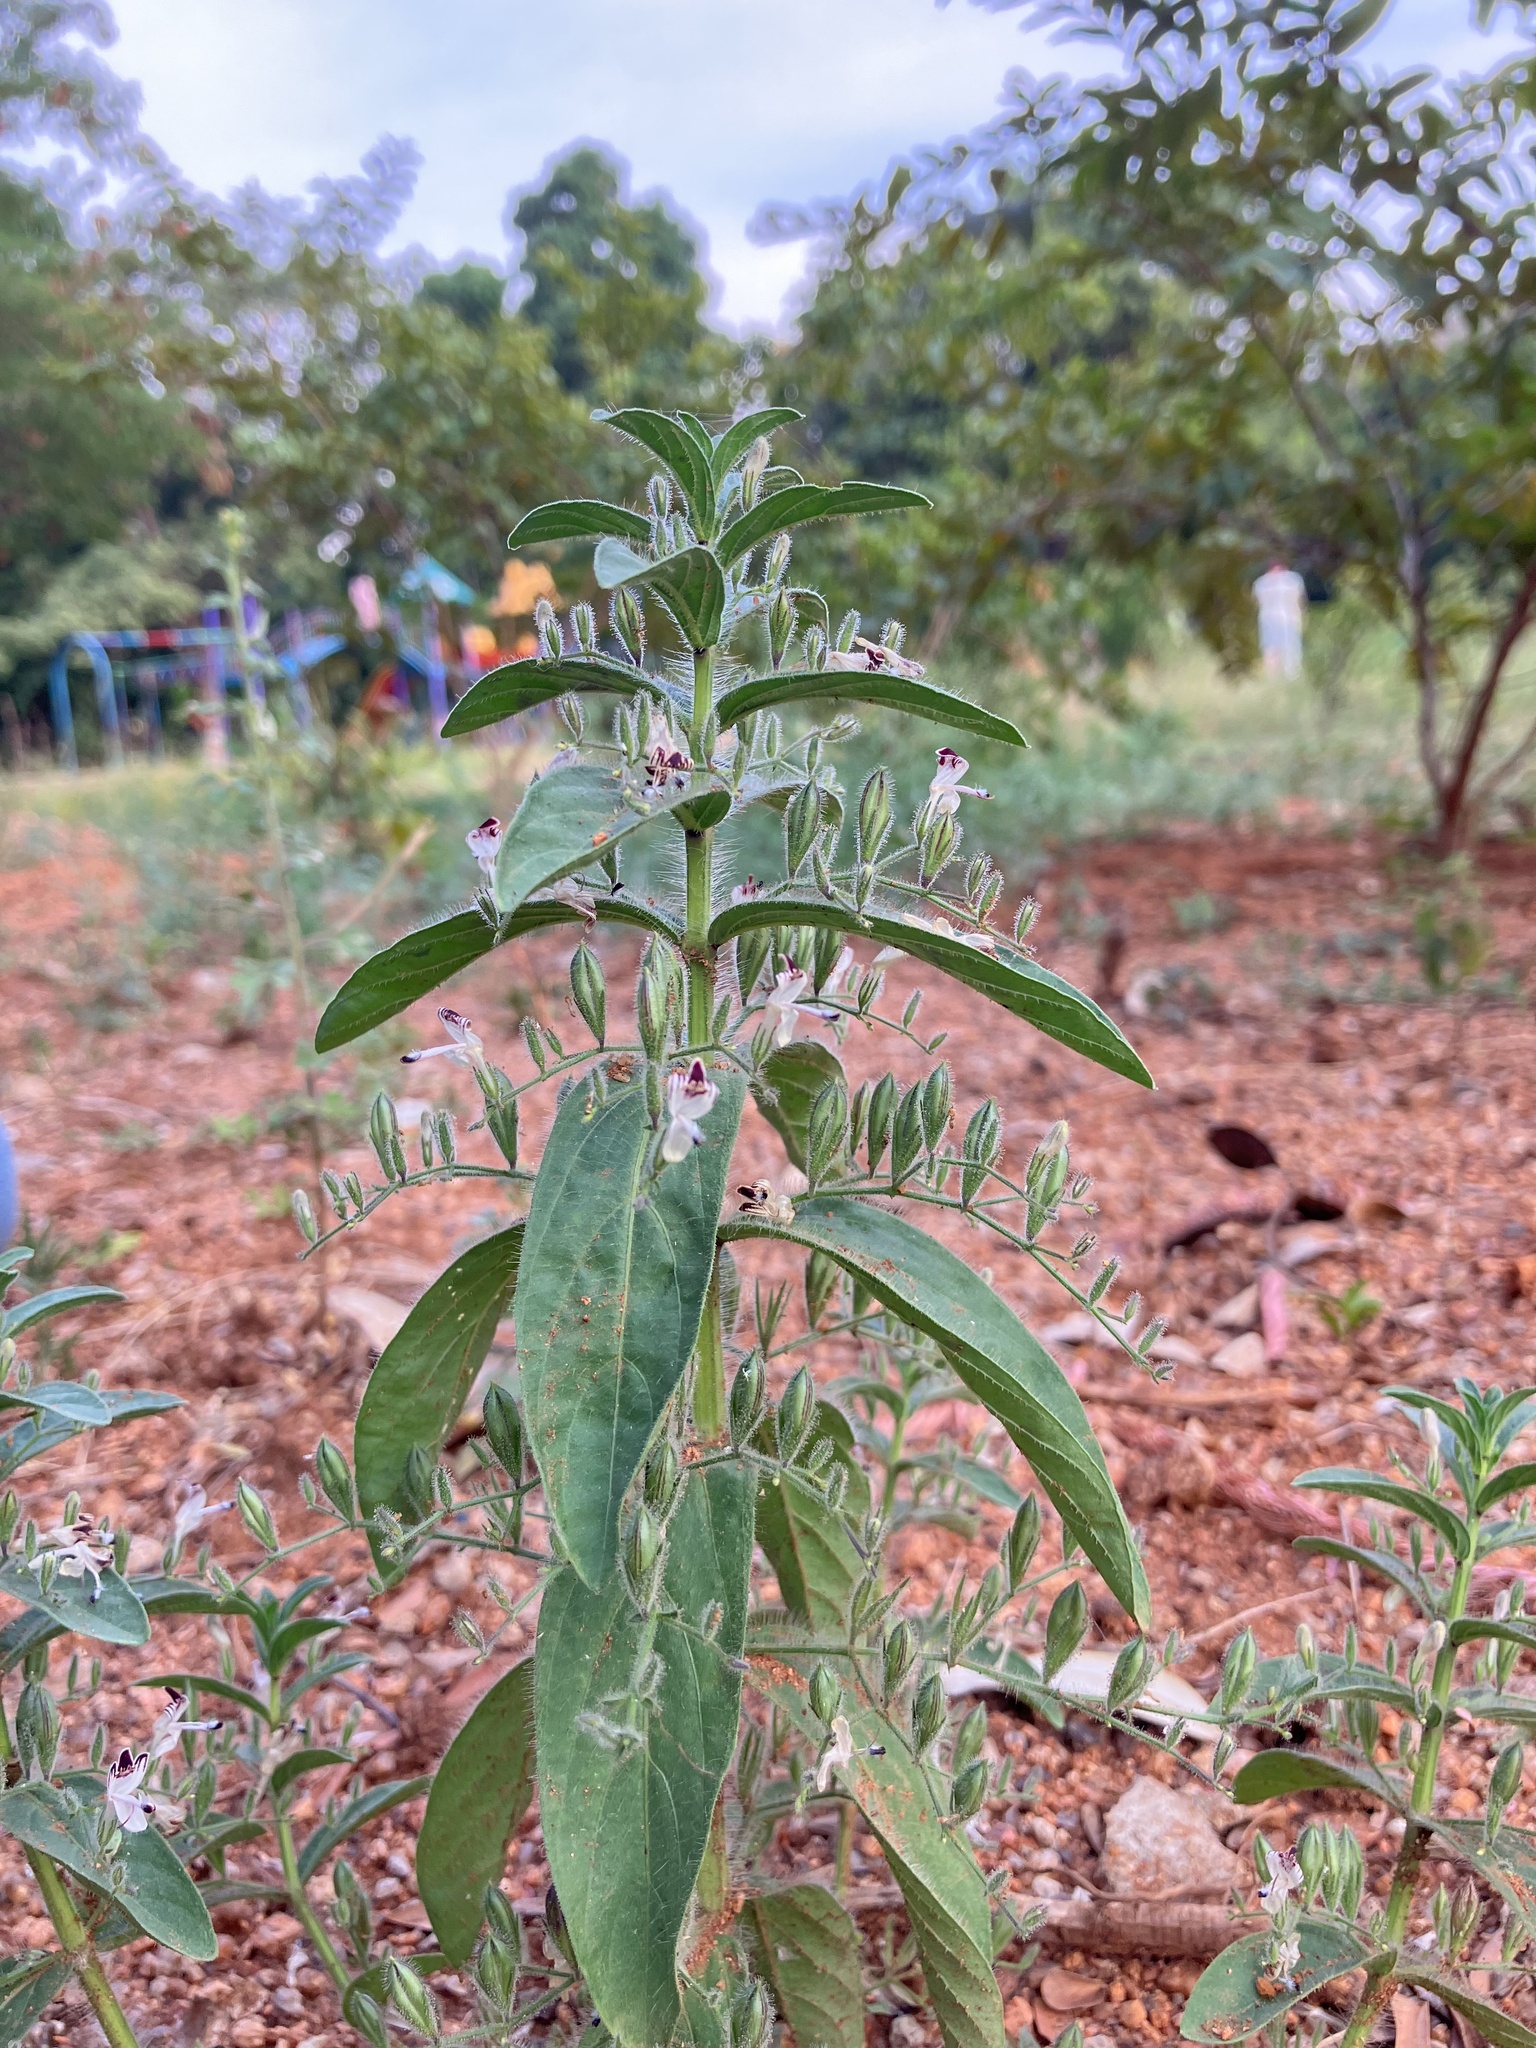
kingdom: Plantae
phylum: Tracheophyta
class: Magnoliopsida
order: Lamiales
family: Acanthaceae
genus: Andrographis
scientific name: Andrographis echioides
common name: False waterwillow
